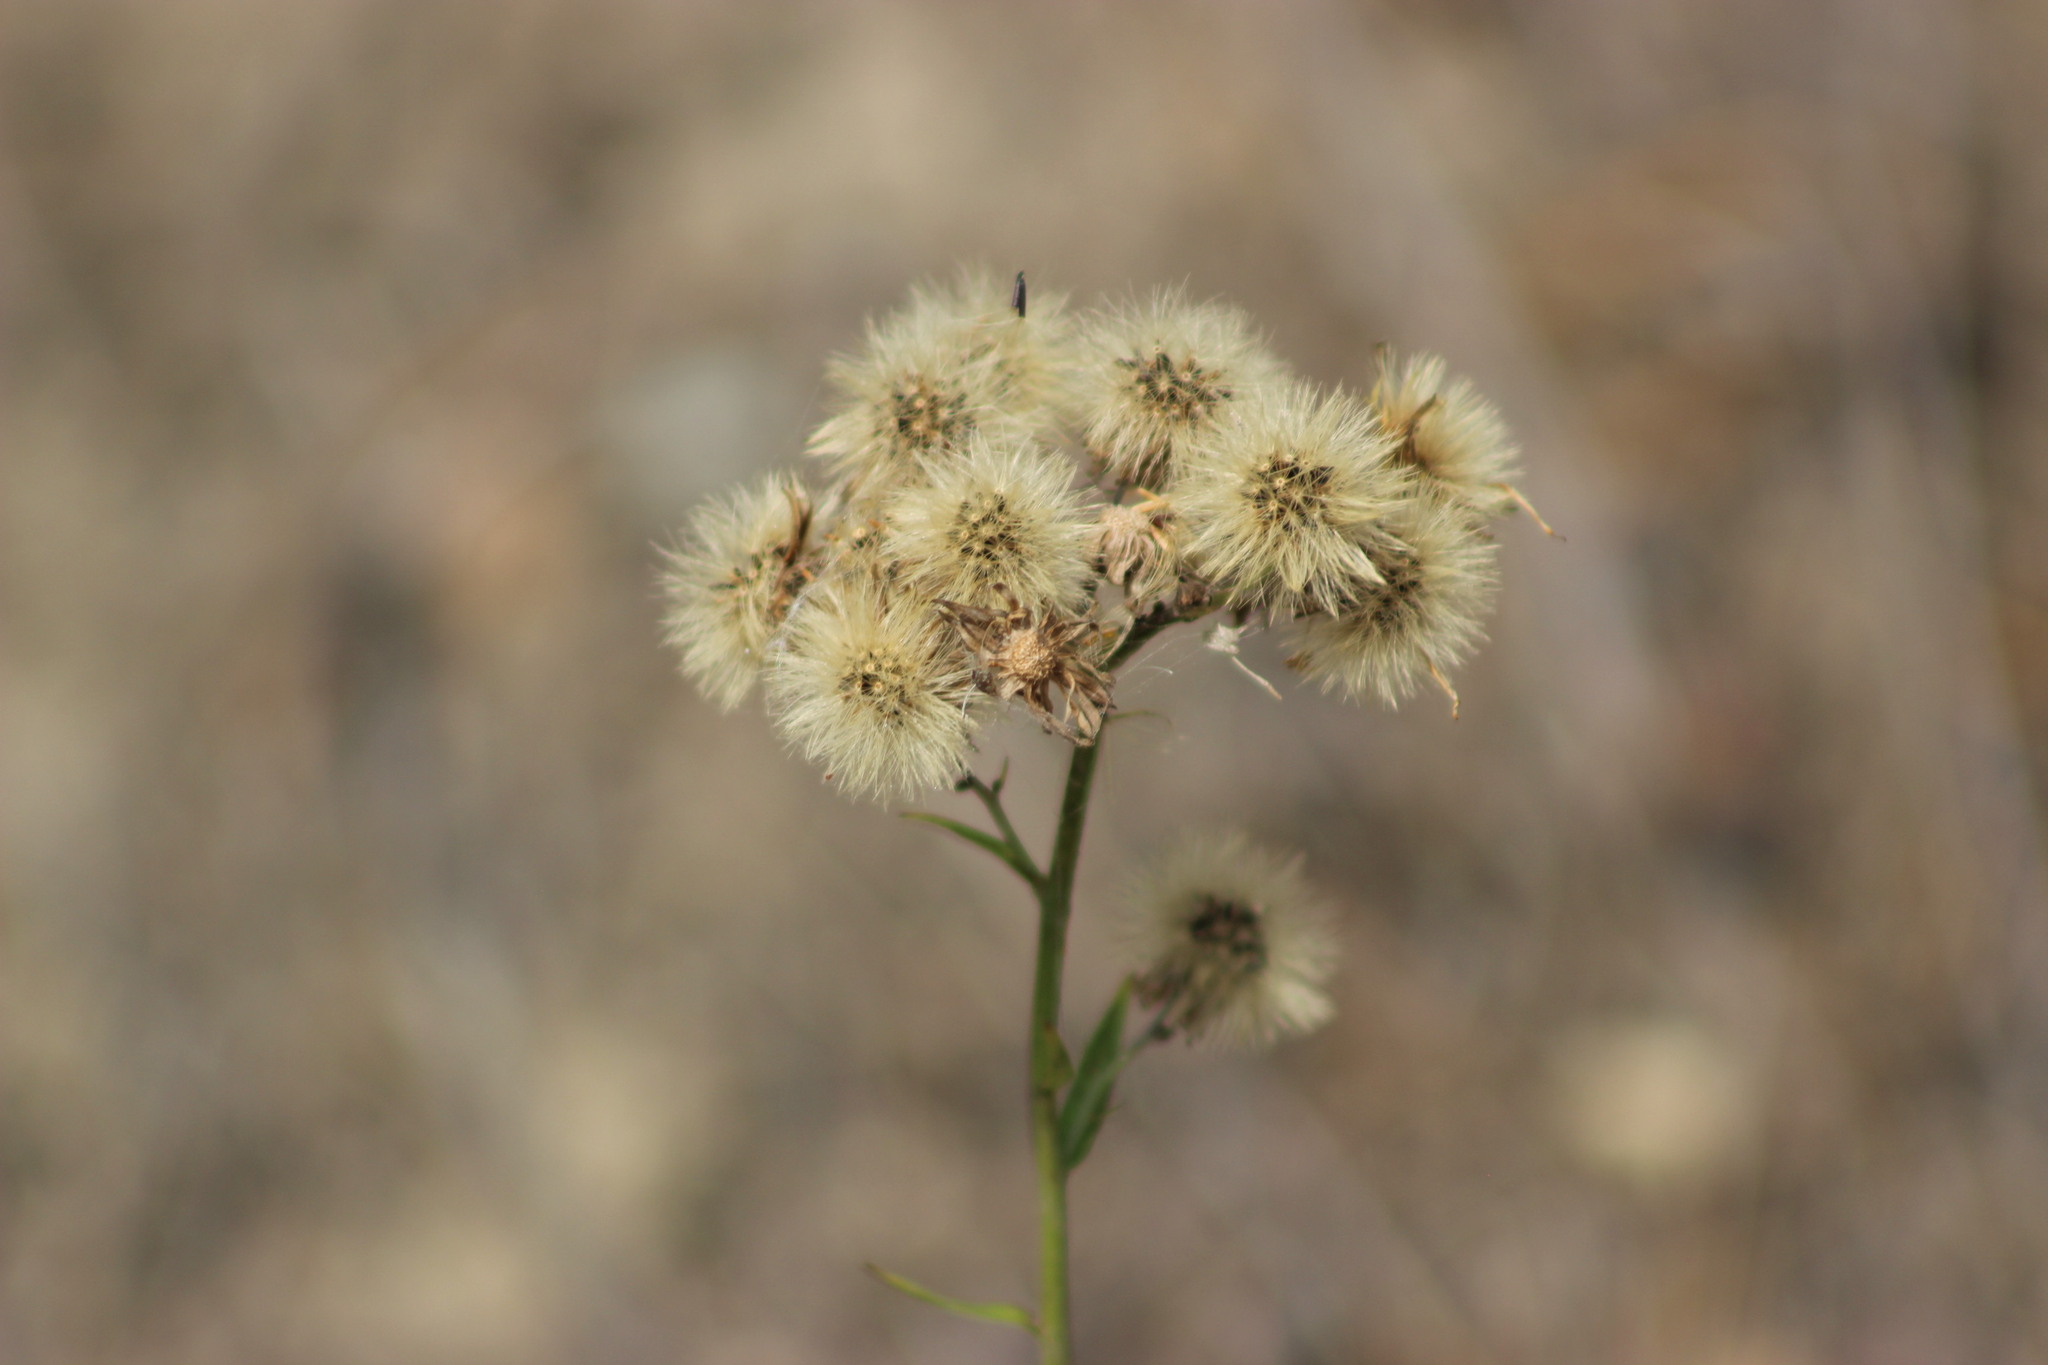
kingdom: Plantae
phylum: Tracheophyta
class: Magnoliopsida
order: Asterales
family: Asteraceae
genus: Hieracium
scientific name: Hieracium umbellatum
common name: Northern hawkweed
